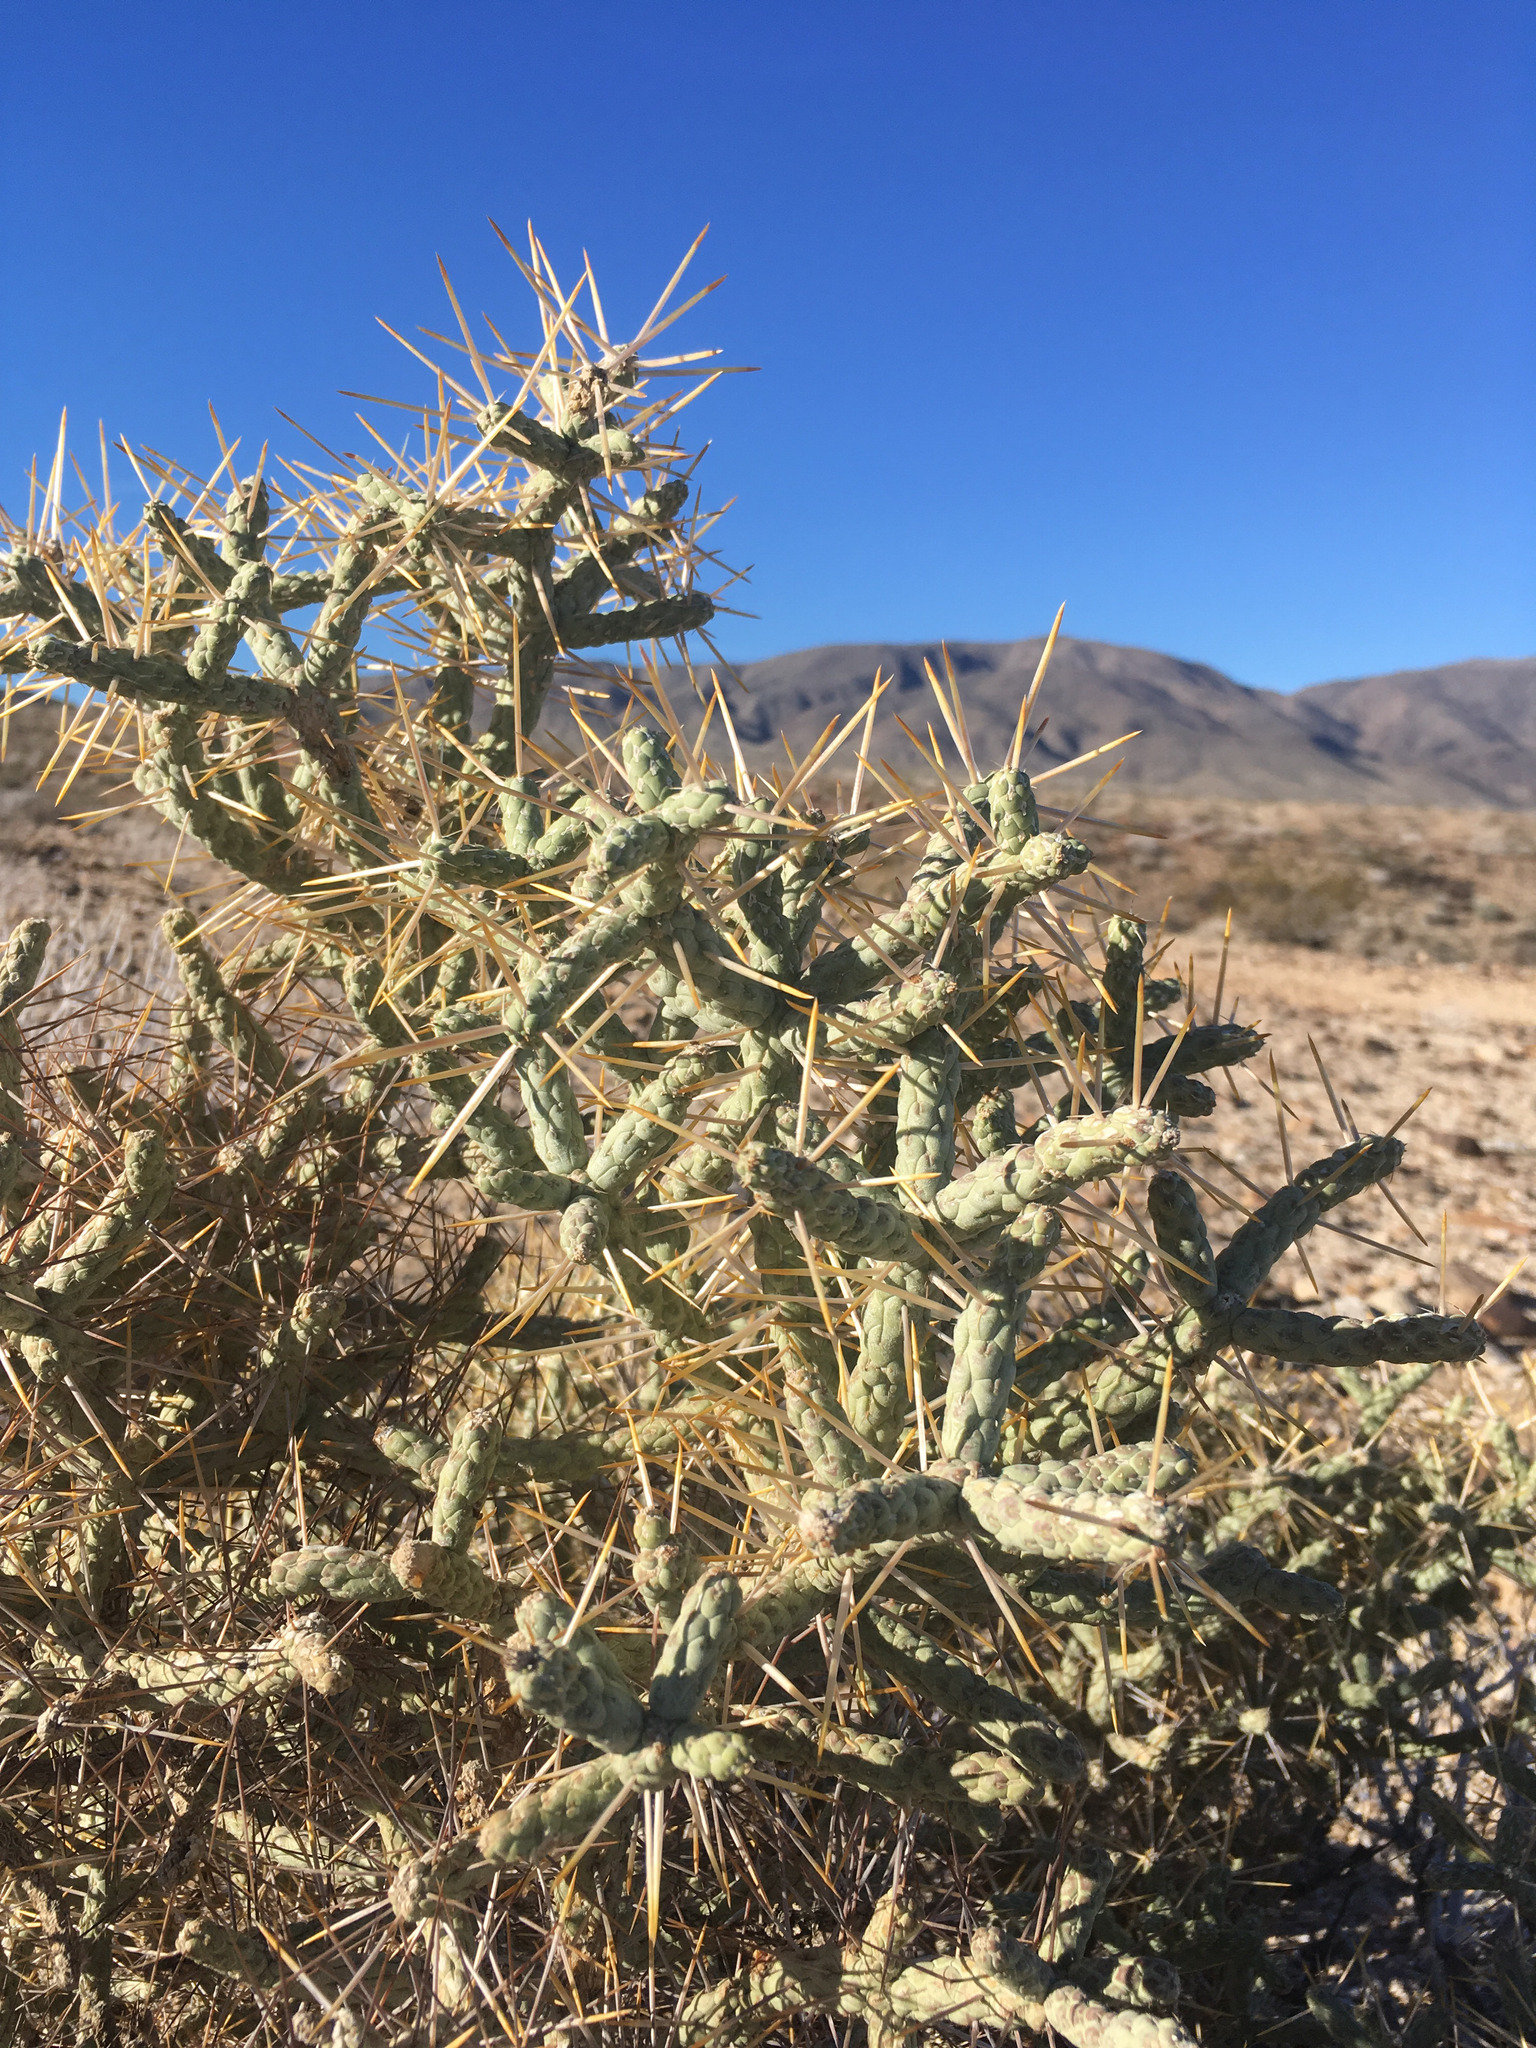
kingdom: Plantae
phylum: Tracheophyta
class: Magnoliopsida
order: Caryophyllales
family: Cactaceae
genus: Cylindropuntia
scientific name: Cylindropuntia ramosissima
